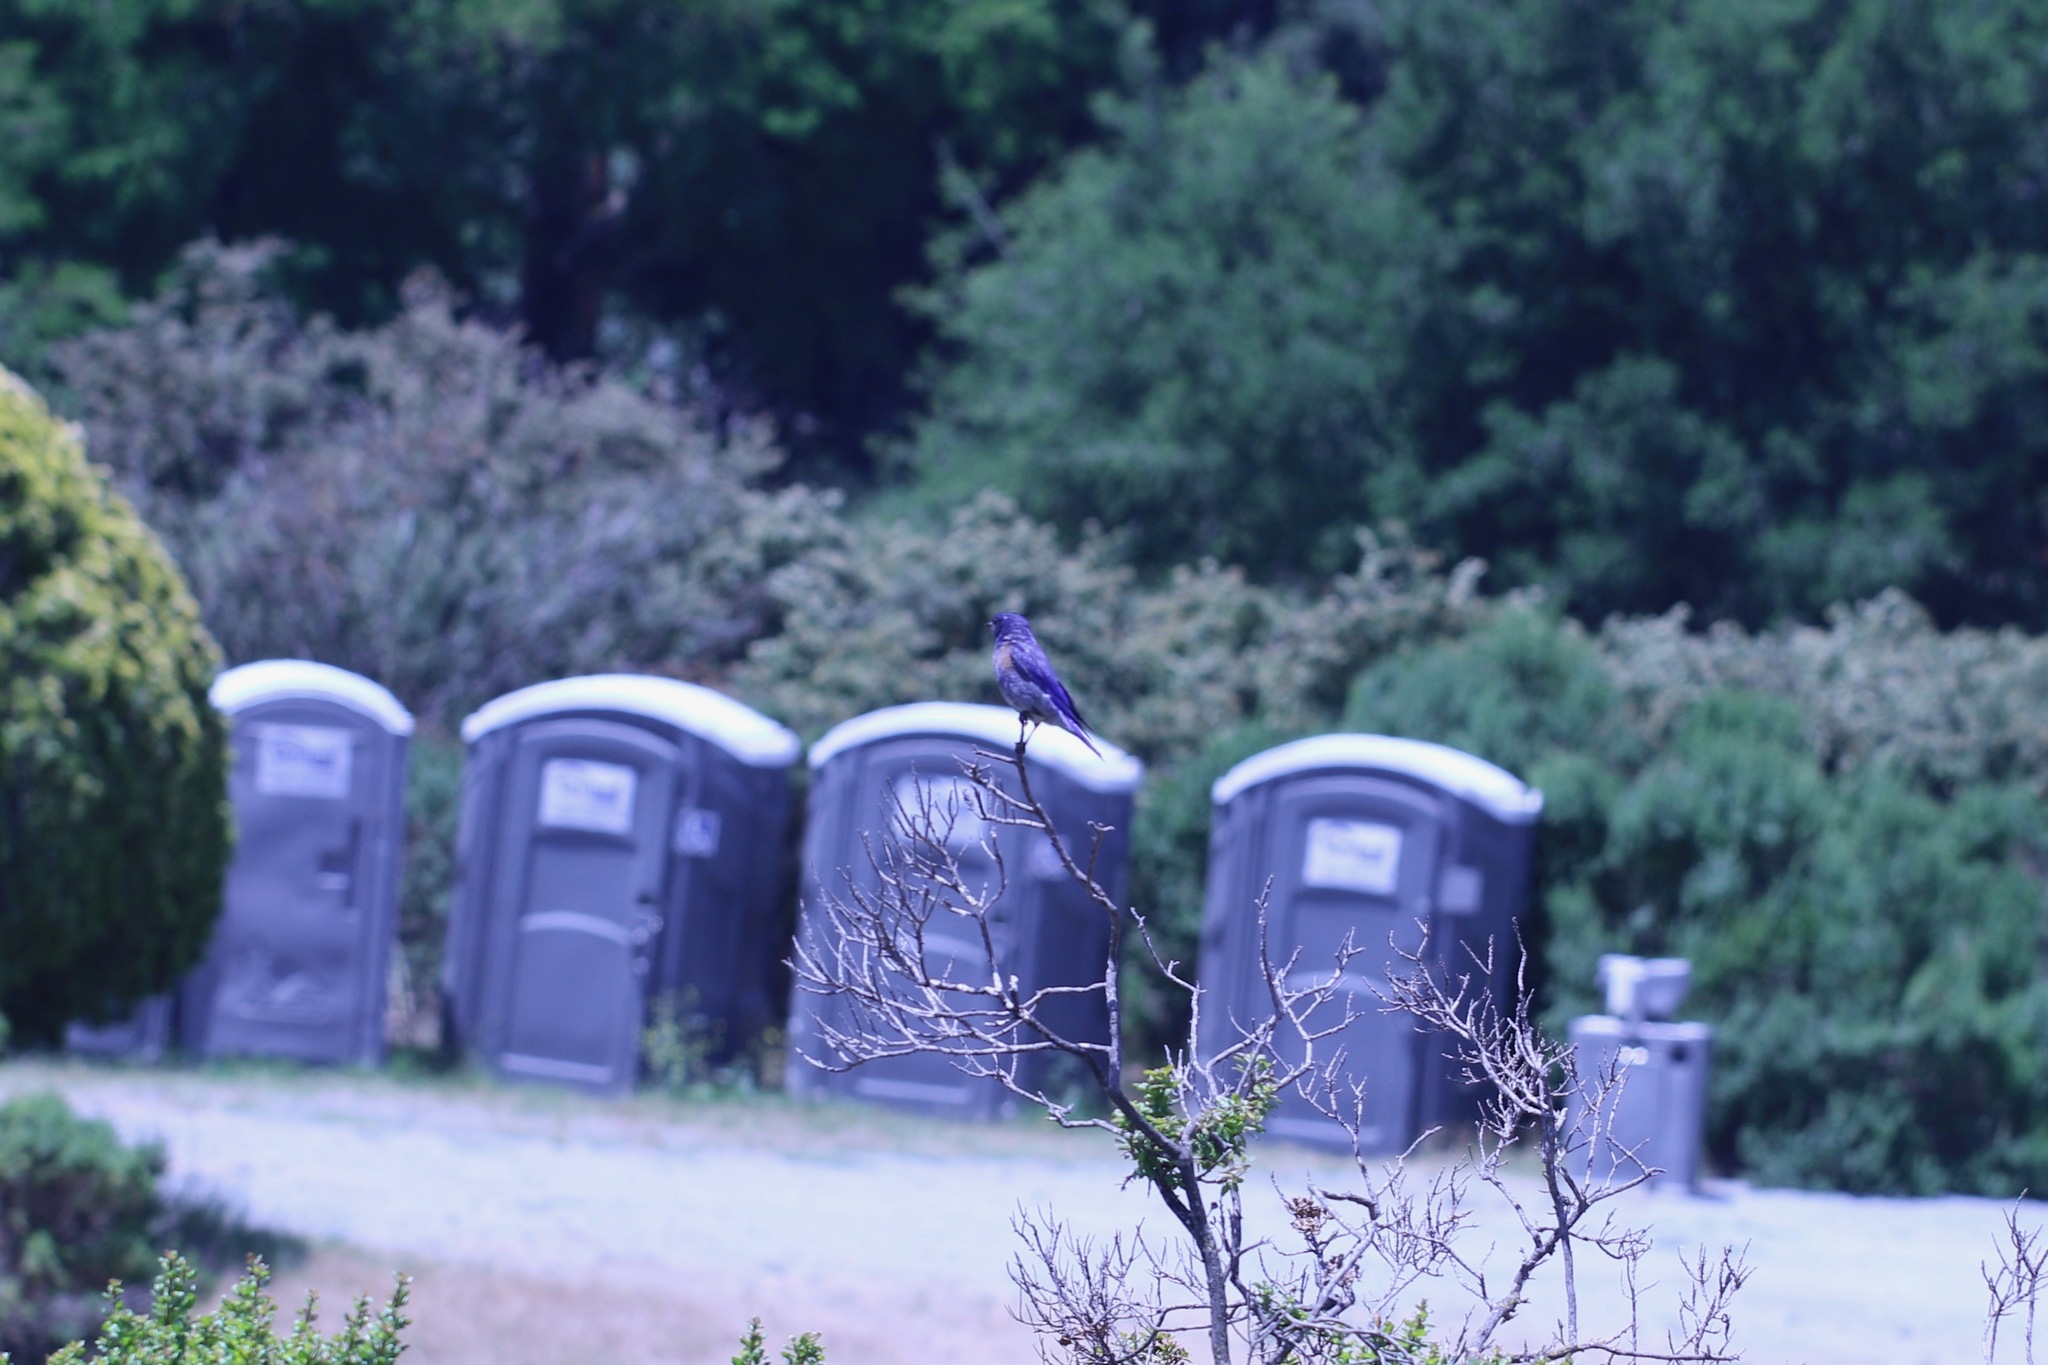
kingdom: Animalia
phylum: Chordata
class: Aves
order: Passeriformes
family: Turdidae
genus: Sialia
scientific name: Sialia mexicana
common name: Western bluebird
